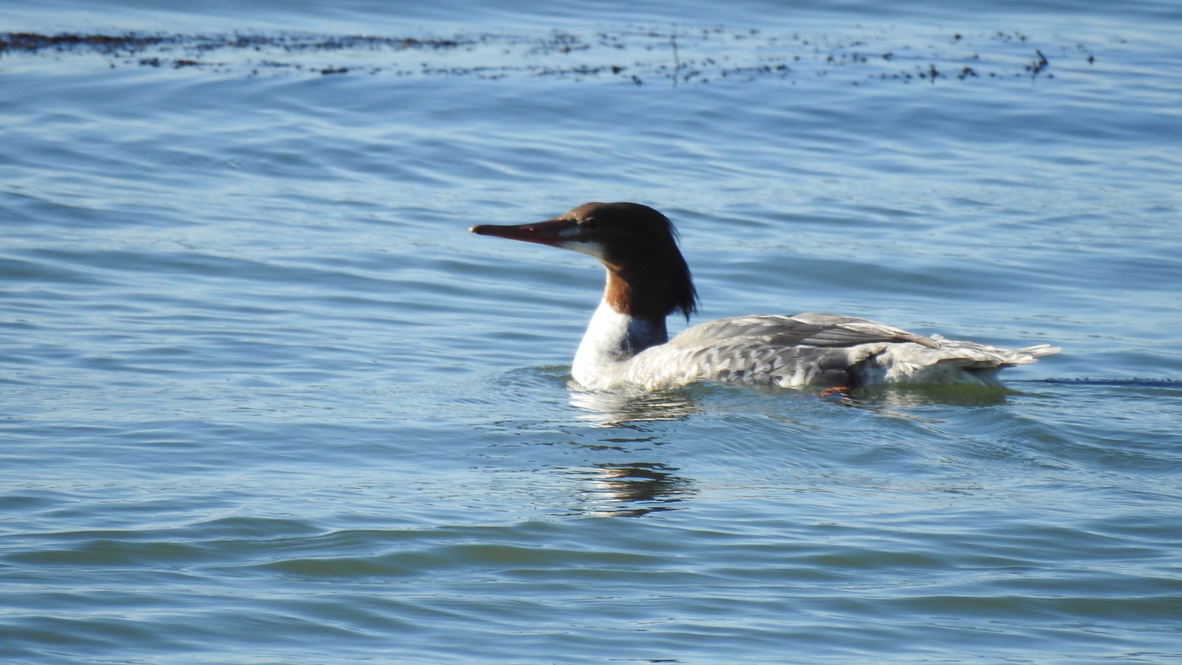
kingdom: Animalia
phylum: Chordata
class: Aves
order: Anseriformes
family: Anatidae
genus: Mergus
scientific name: Mergus merganser
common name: Common merganser
